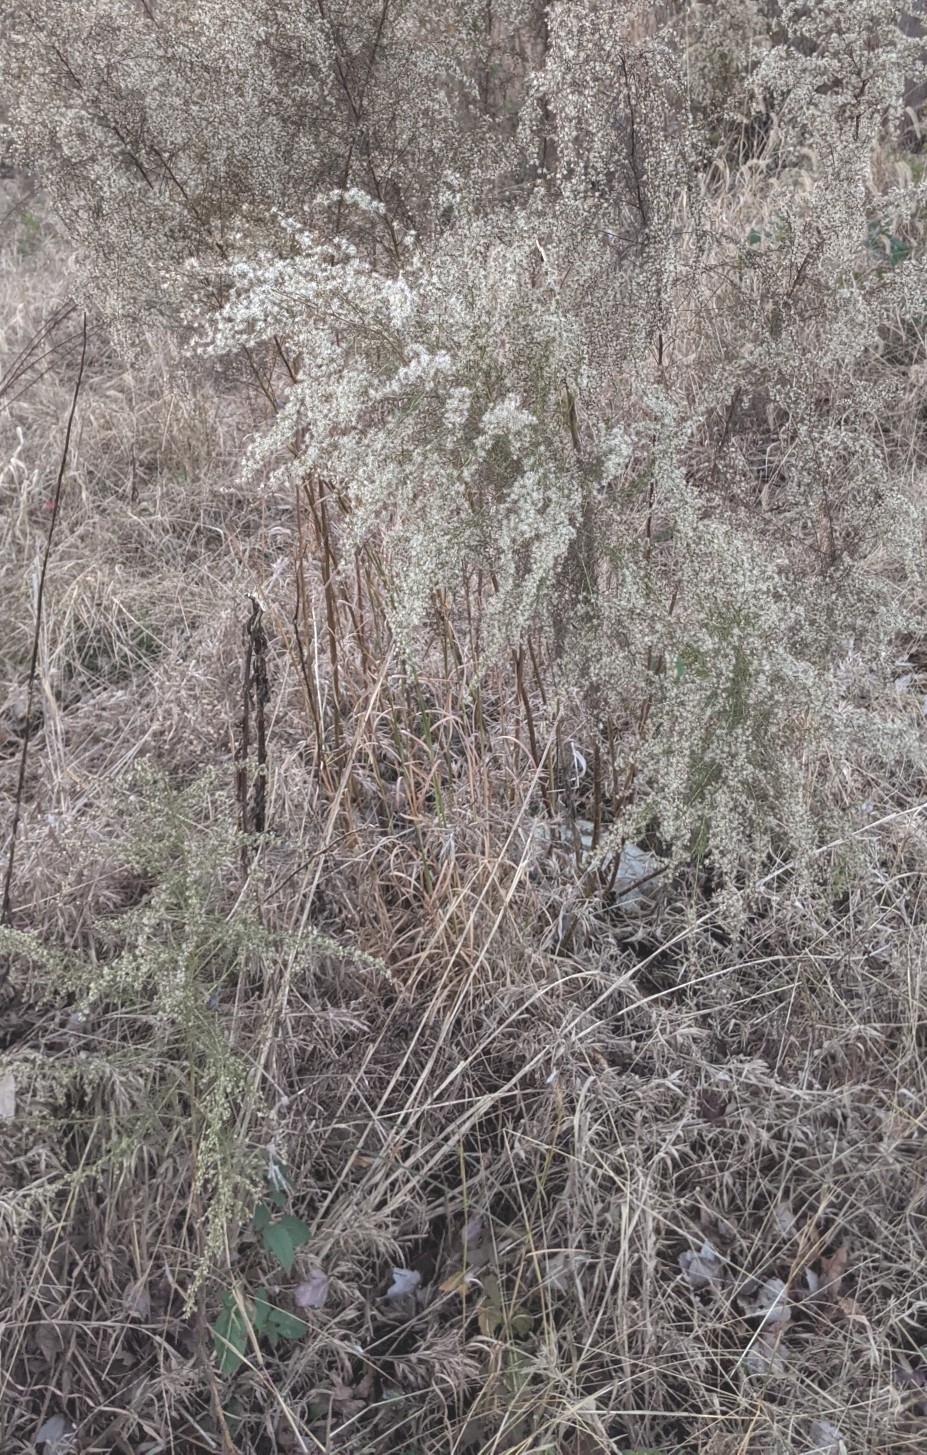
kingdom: Plantae
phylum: Tracheophyta
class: Magnoliopsida
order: Asterales
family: Asteraceae
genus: Eupatorium
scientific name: Eupatorium capillifolium
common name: Dog-fennel
